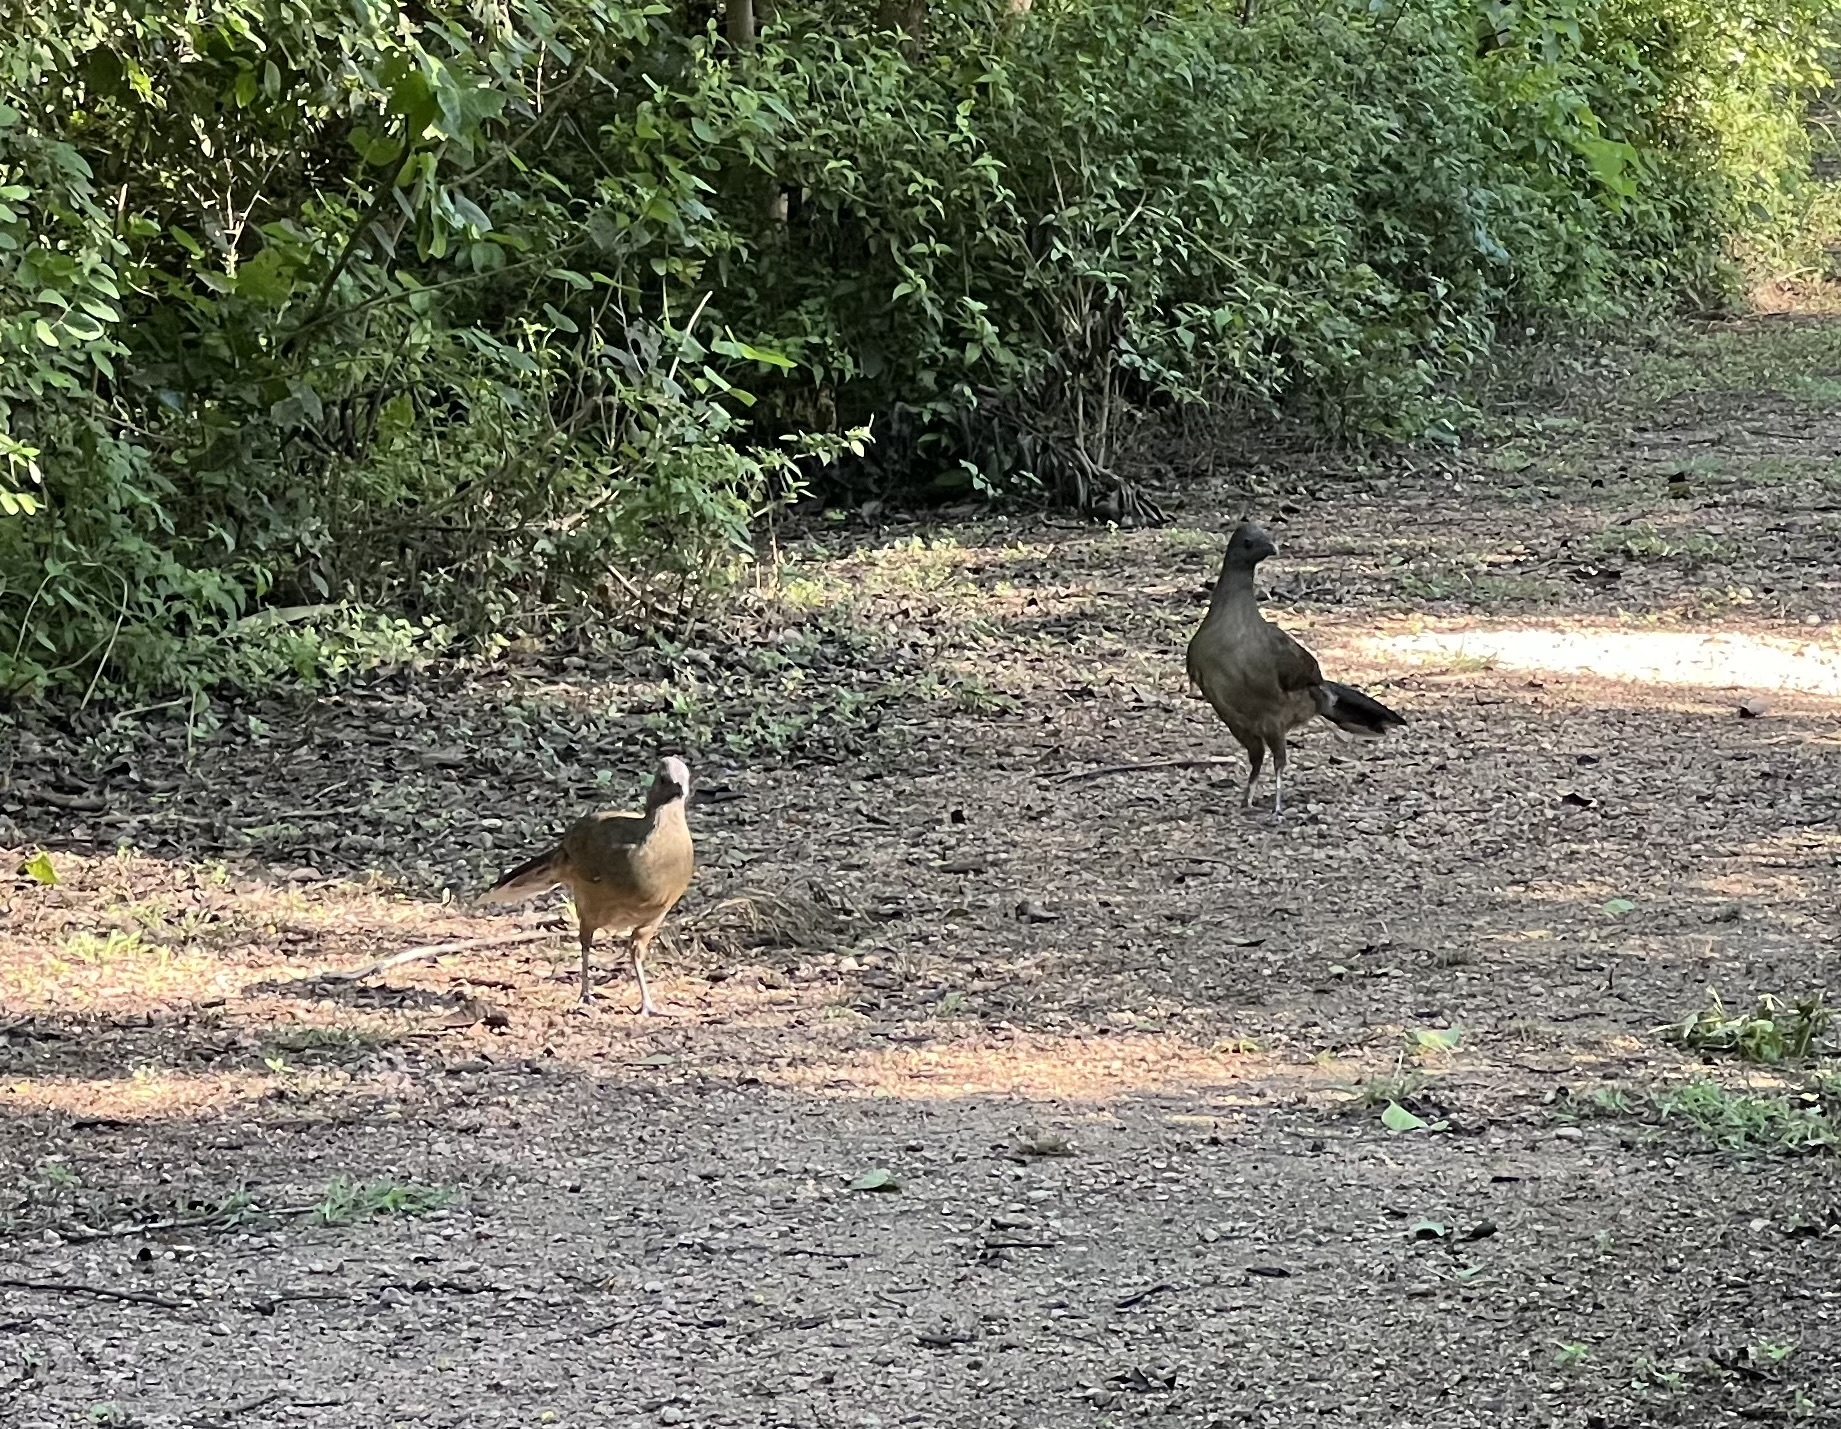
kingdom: Animalia
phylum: Chordata
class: Aves
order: Galliformes
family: Cracidae
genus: Ortalis
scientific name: Ortalis vetula
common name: Plain chachalaca
